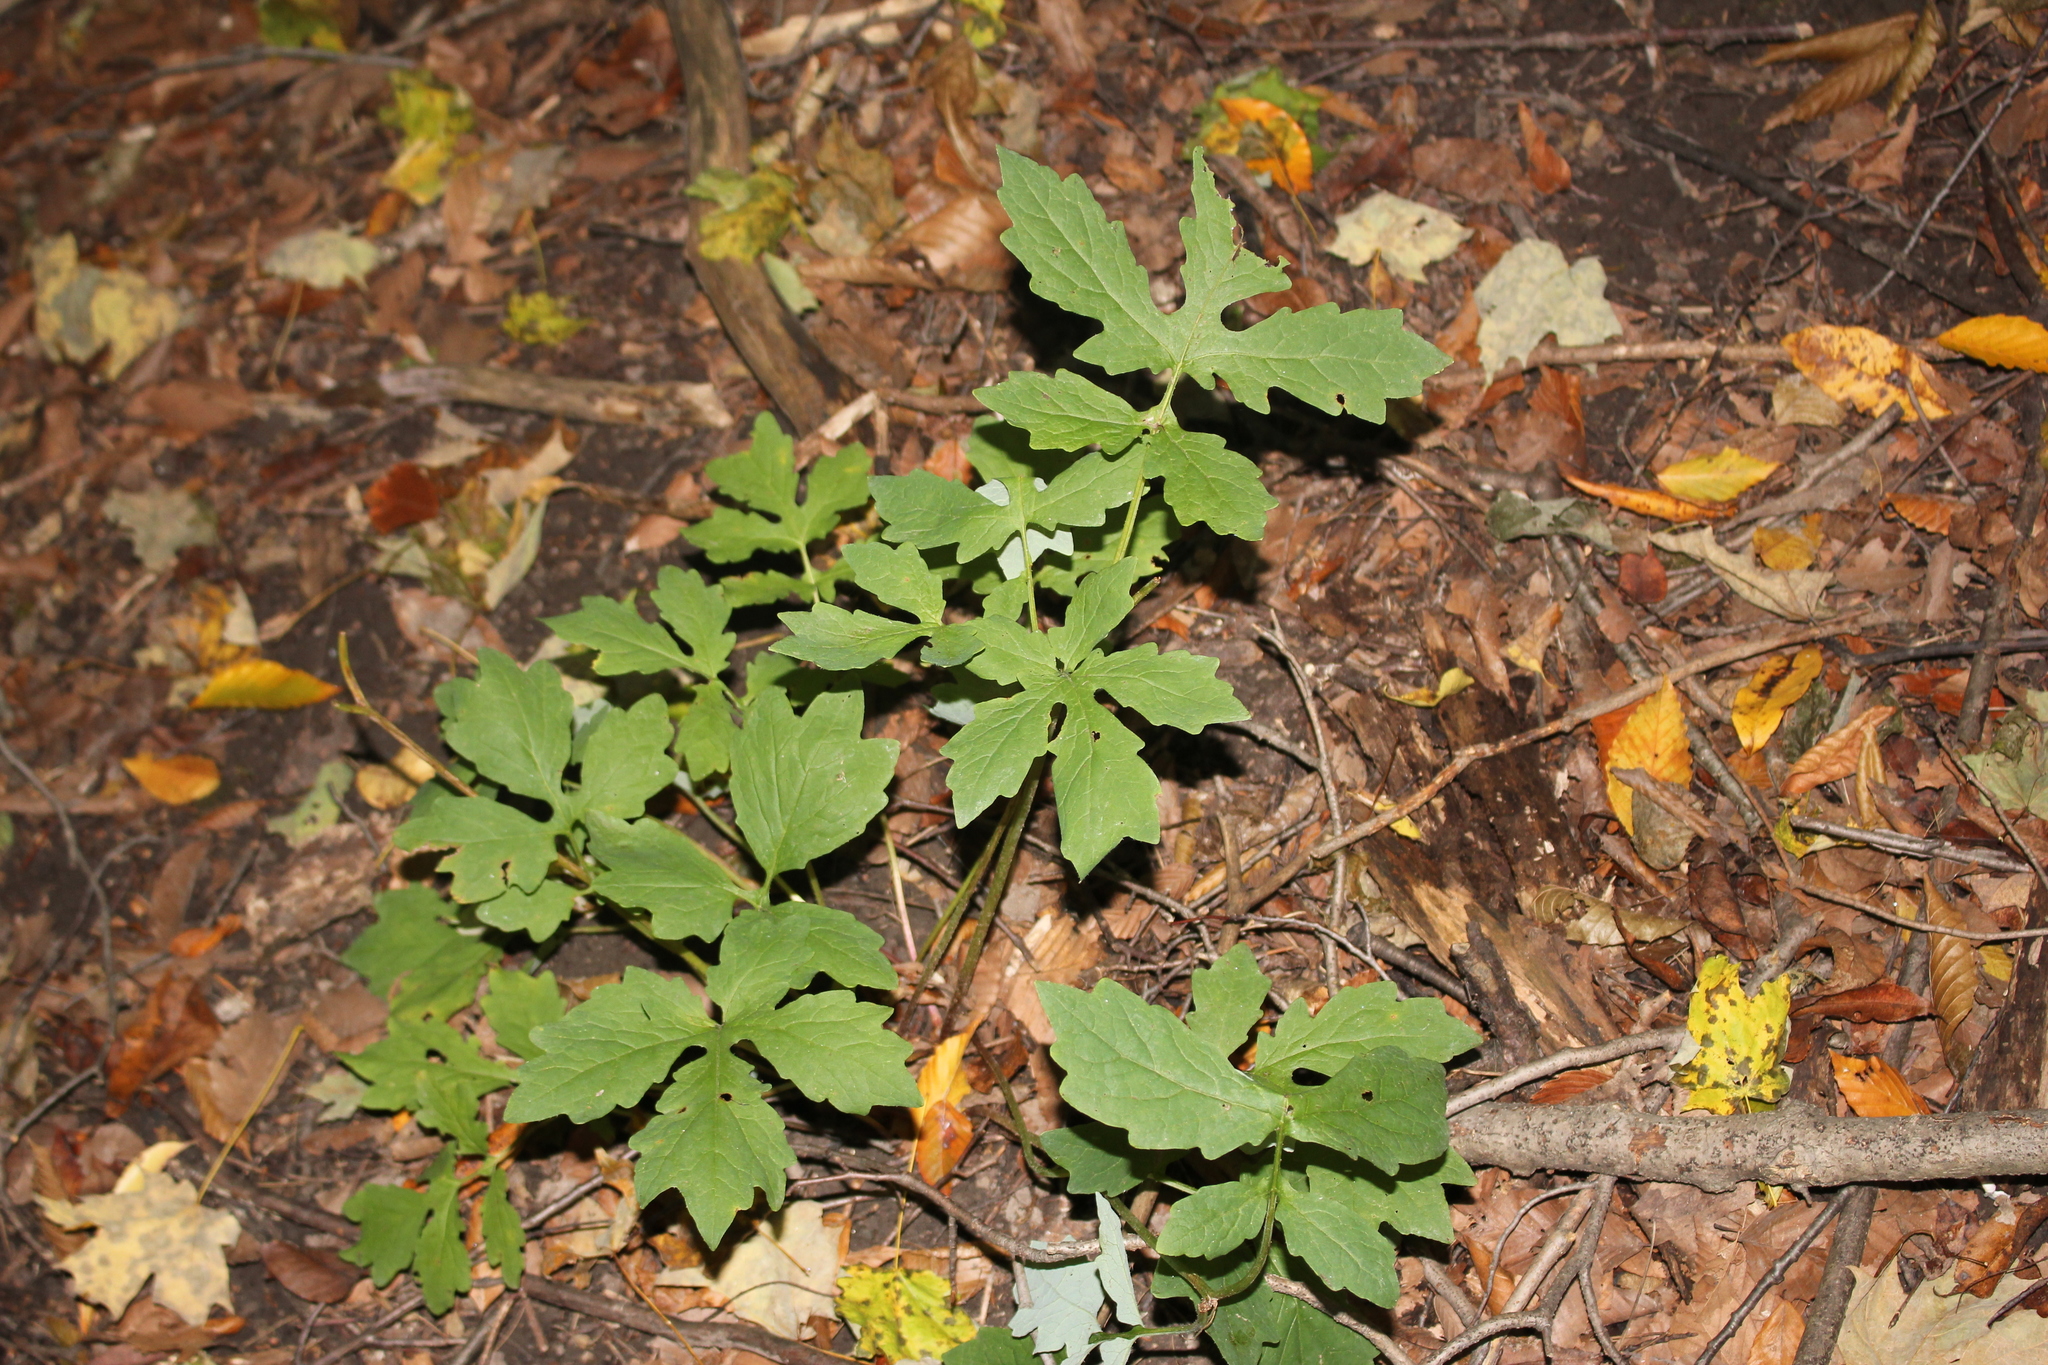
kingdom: Plantae
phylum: Tracheophyta
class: Magnoliopsida
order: Ranunculales
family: Papaveraceae
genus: Stylophorum
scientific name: Stylophorum diphyllum
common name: Celandine poppy
